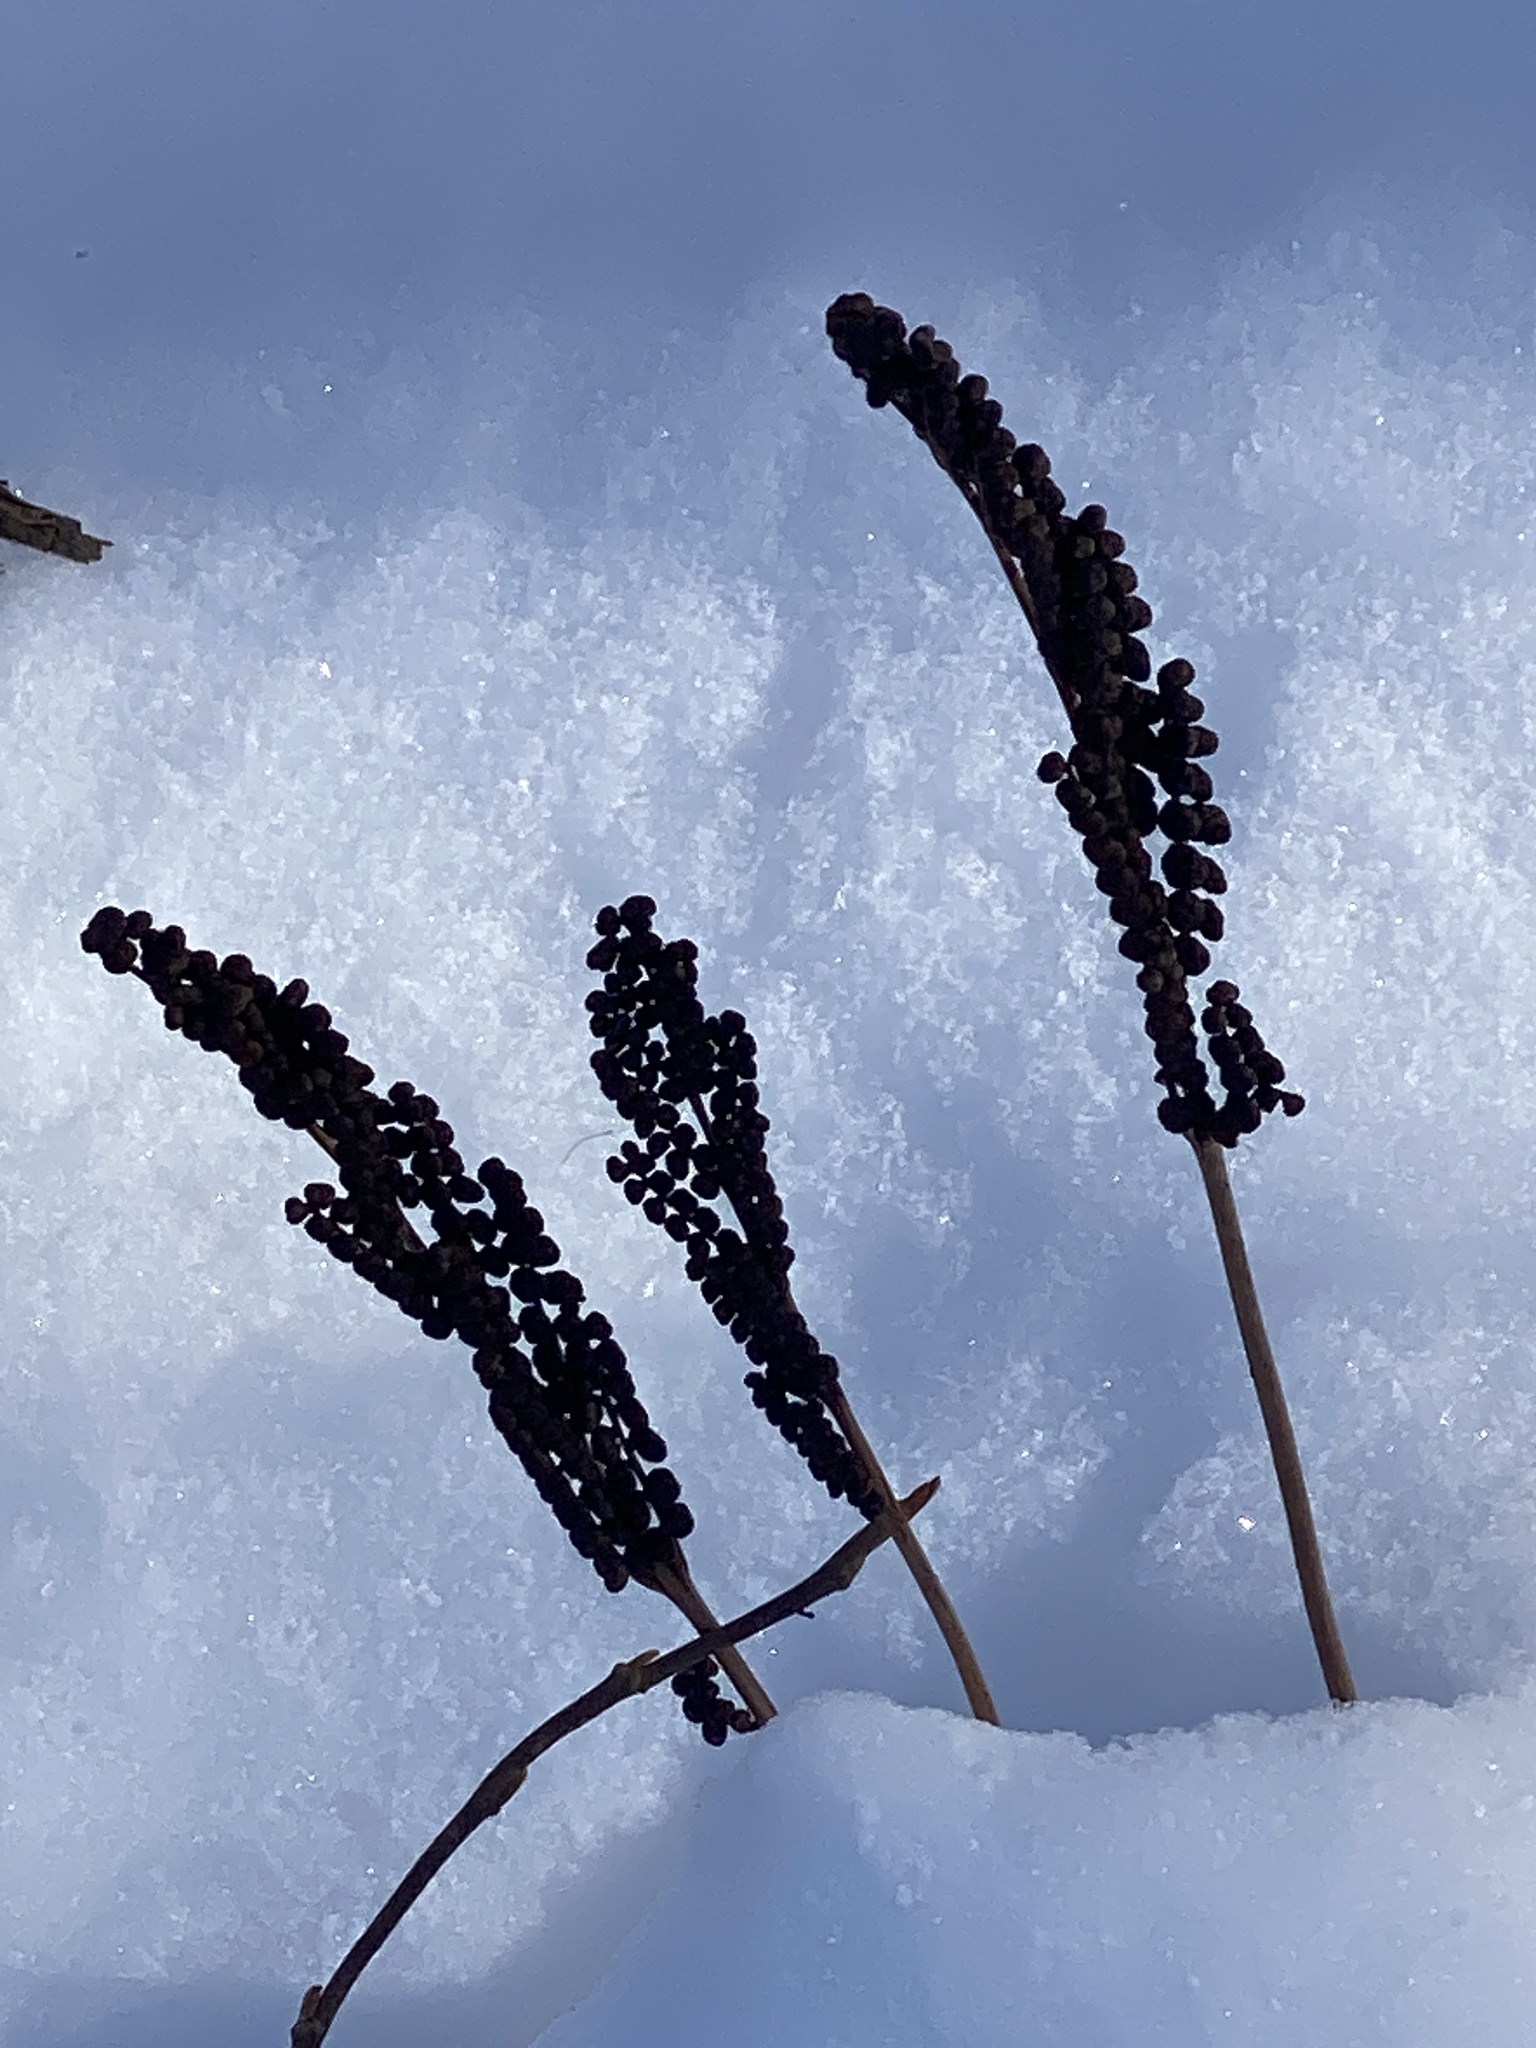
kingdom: Plantae
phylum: Tracheophyta
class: Polypodiopsida
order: Polypodiales
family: Onocleaceae
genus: Onoclea
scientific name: Onoclea sensibilis
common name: Sensitive fern
